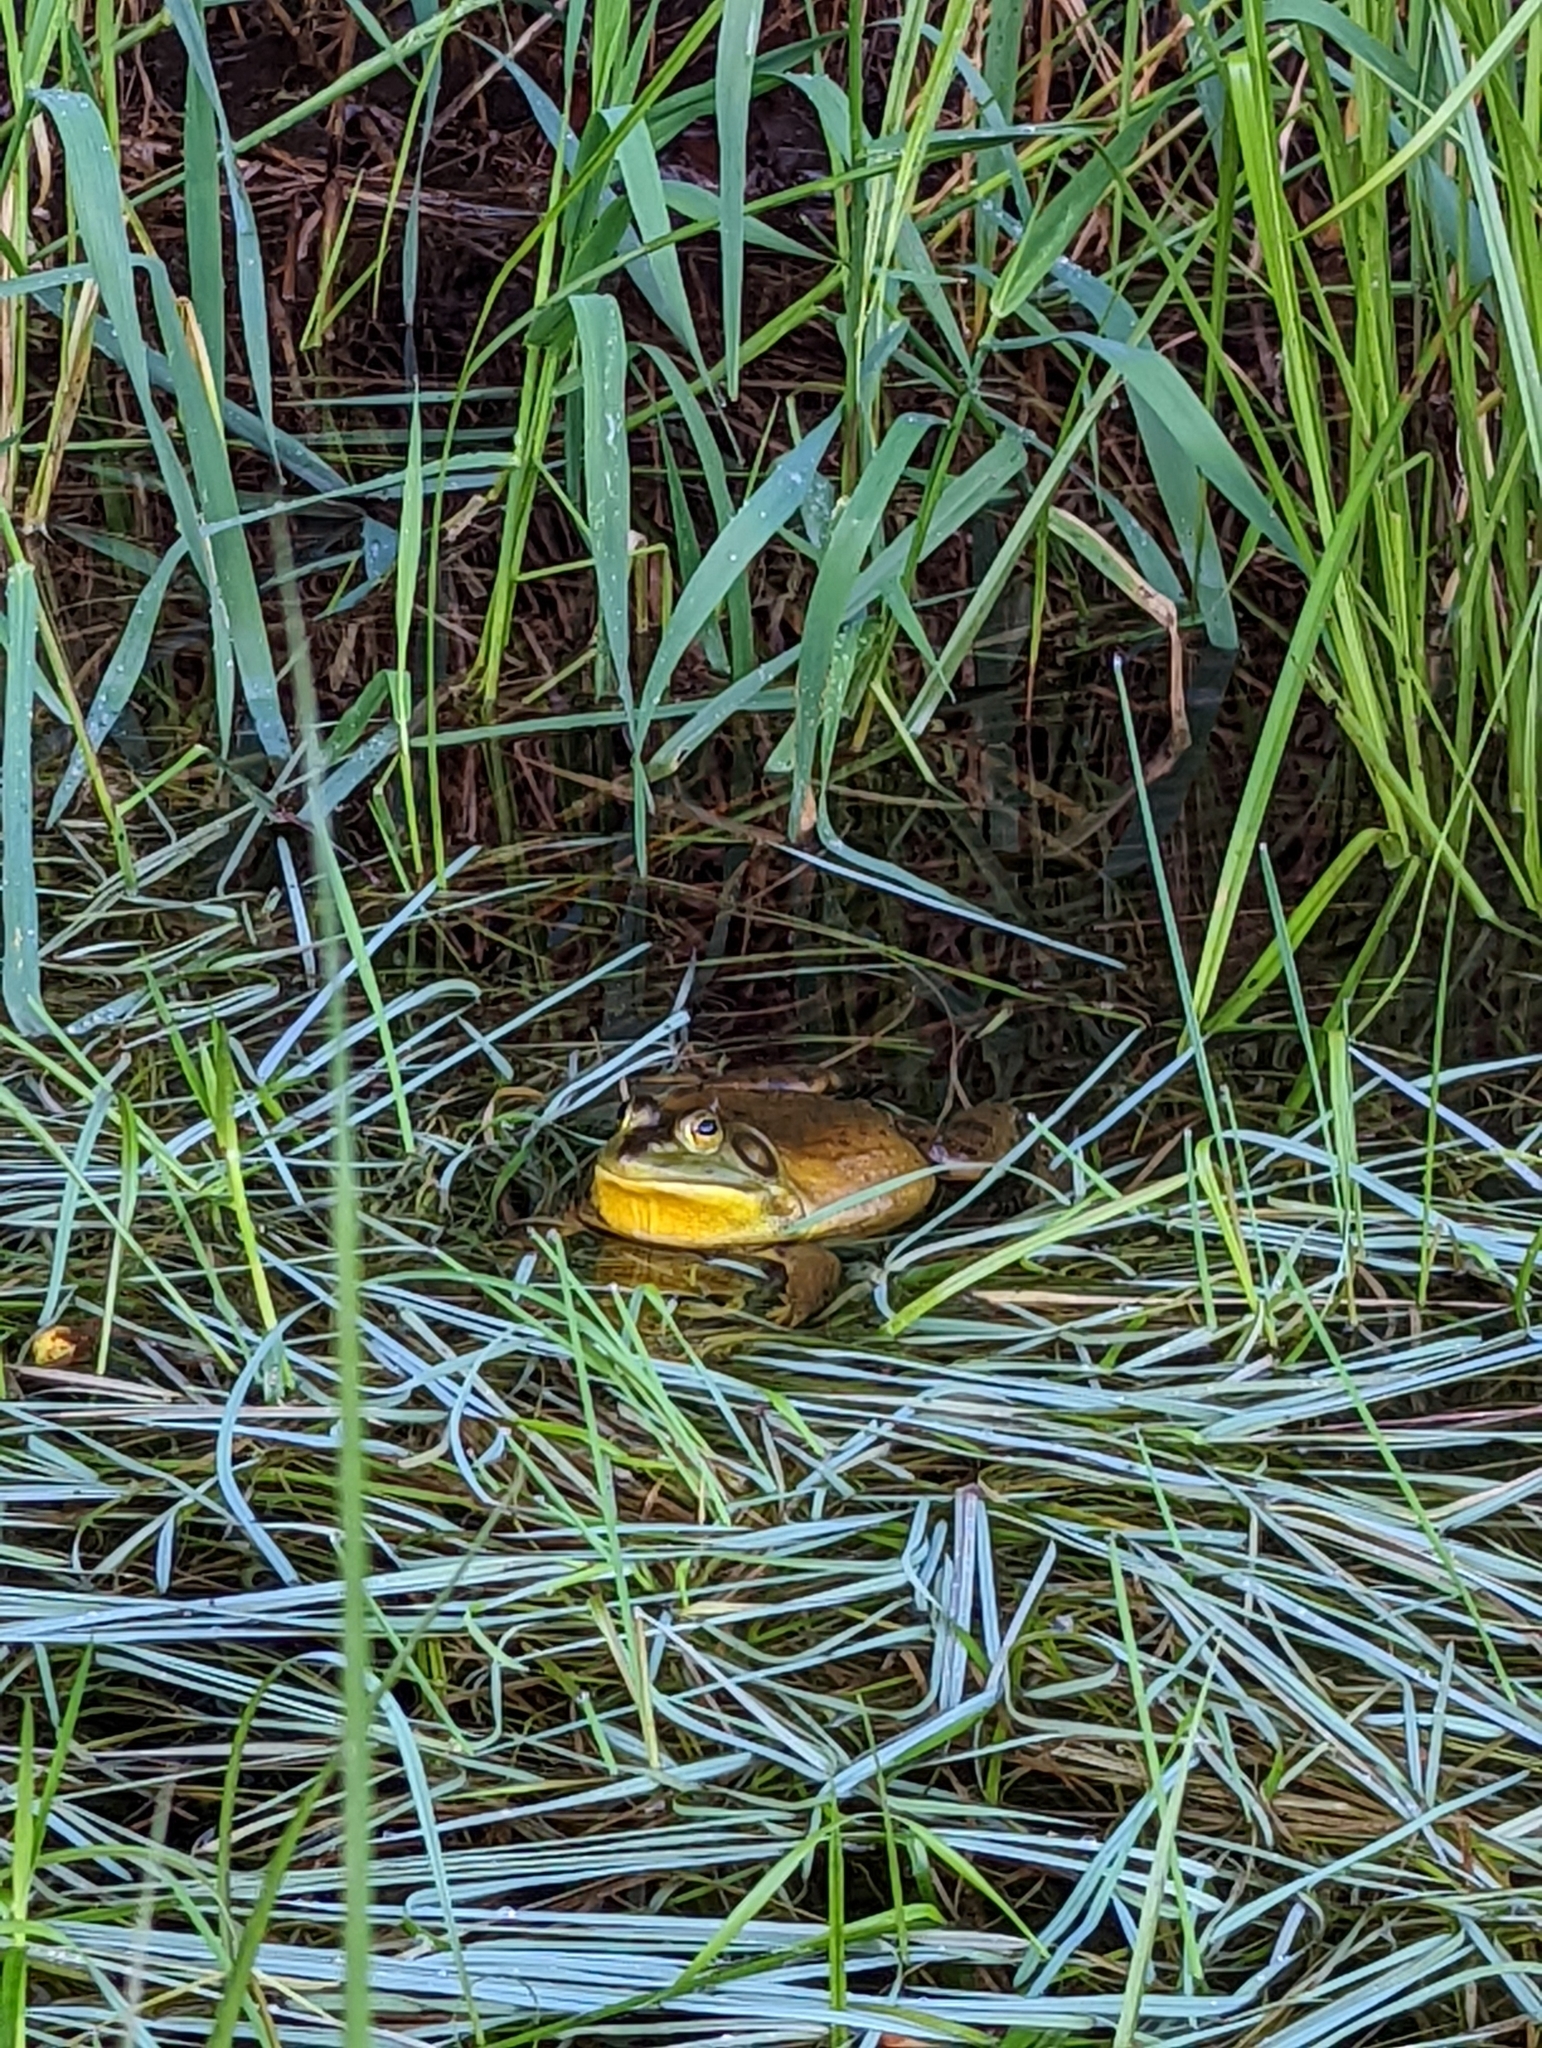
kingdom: Animalia
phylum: Chordata
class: Amphibia
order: Anura
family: Ranidae
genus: Lithobates
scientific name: Lithobates catesbeianus
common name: American bullfrog
